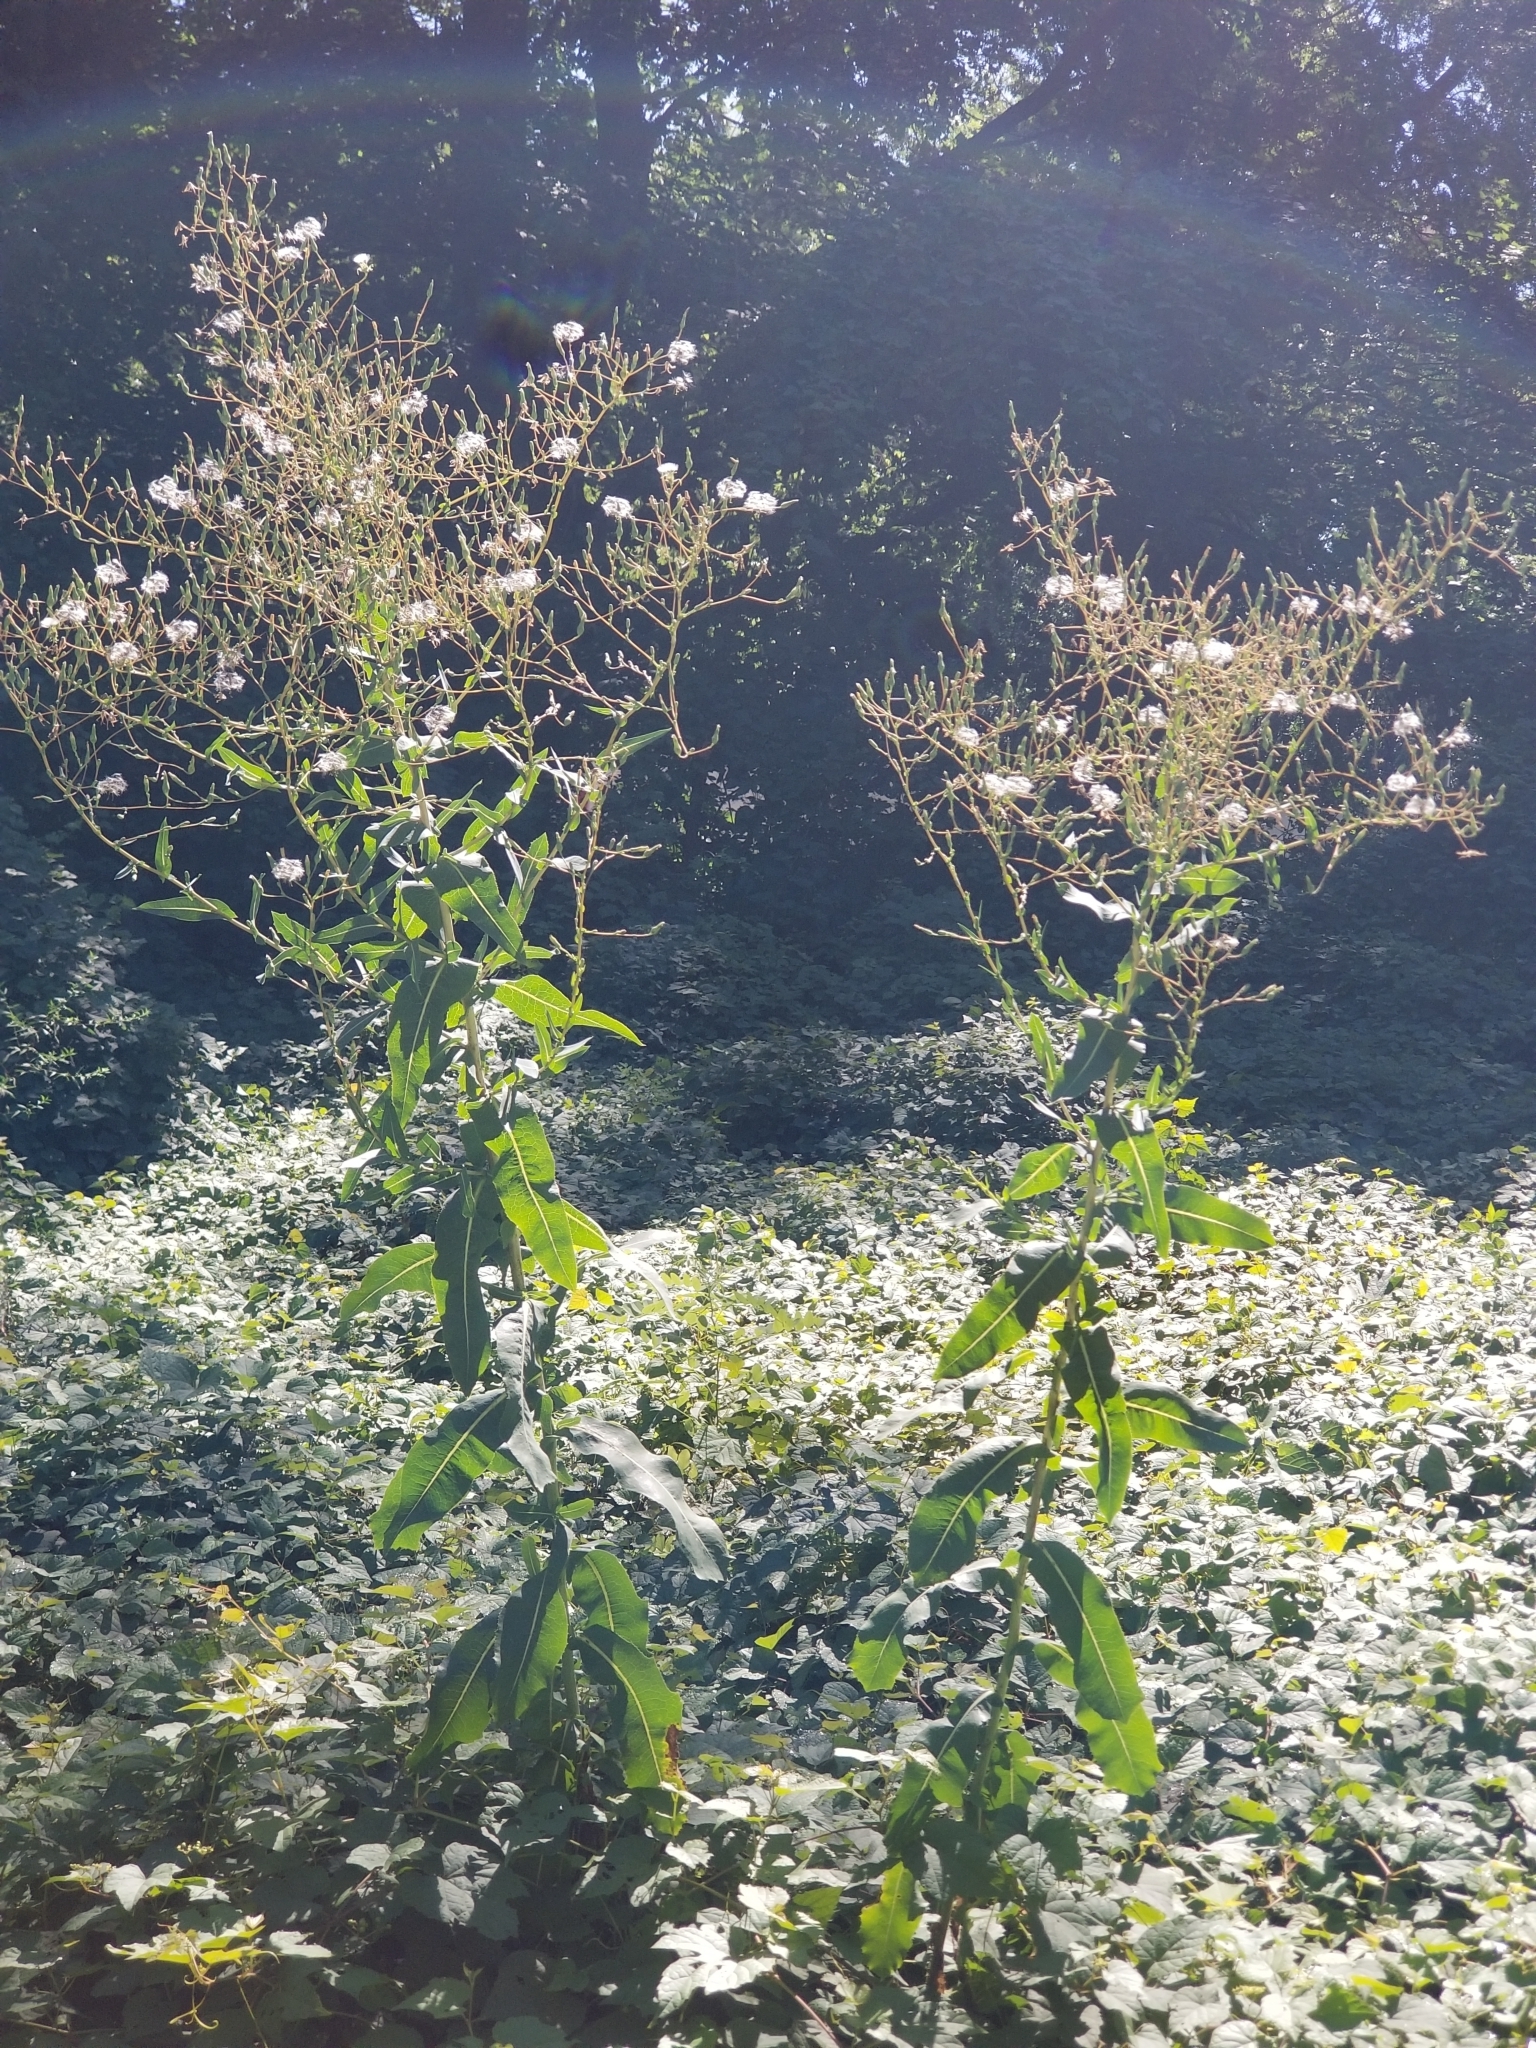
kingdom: Plantae
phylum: Tracheophyta
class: Magnoliopsida
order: Asterales
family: Asteraceae
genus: Erechtites
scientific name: Erechtites hieraciifolius
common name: American burnweed
